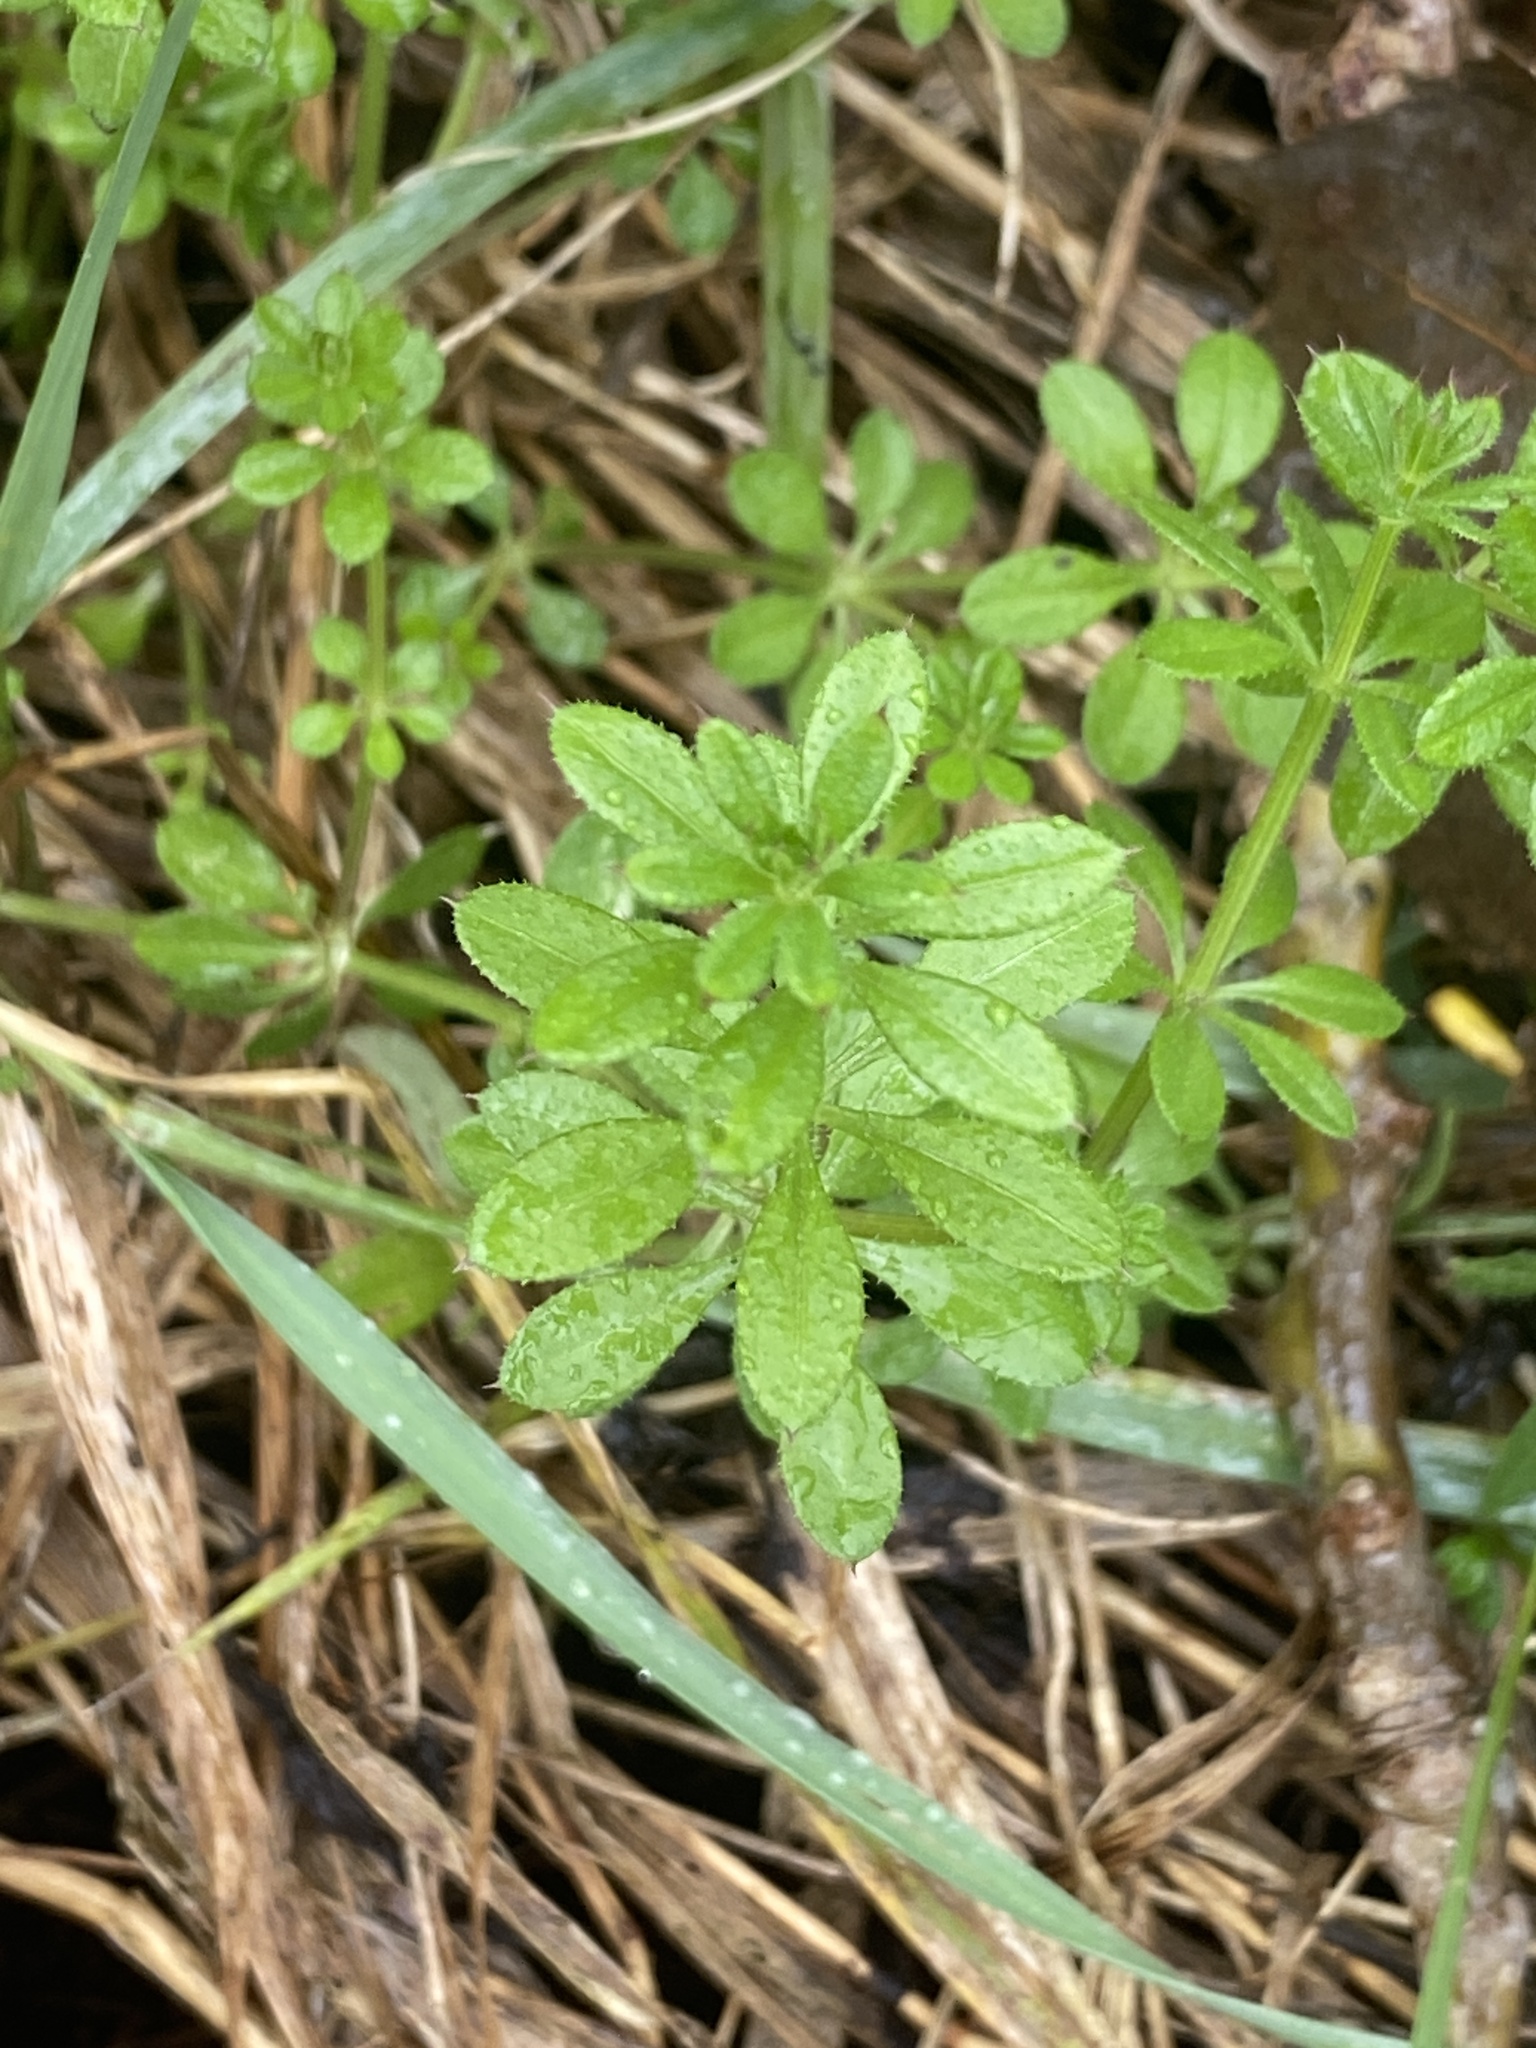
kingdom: Plantae
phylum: Tracheophyta
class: Magnoliopsida
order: Gentianales
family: Rubiaceae
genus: Galium
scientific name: Galium aparine
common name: Cleavers
